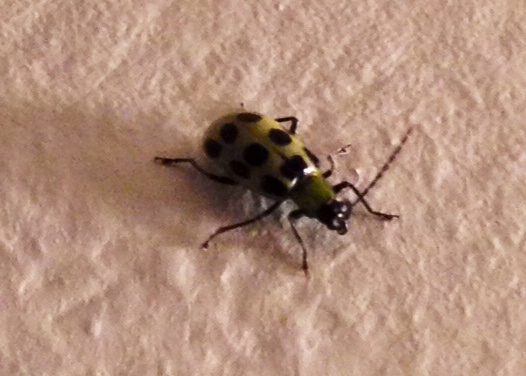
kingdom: Animalia
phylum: Arthropoda
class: Insecta
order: Coleoptera
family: Chrysomelidae
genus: Diabrotica
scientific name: Diabrotica undecimpunctata
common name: Spotted cucumber beetle
